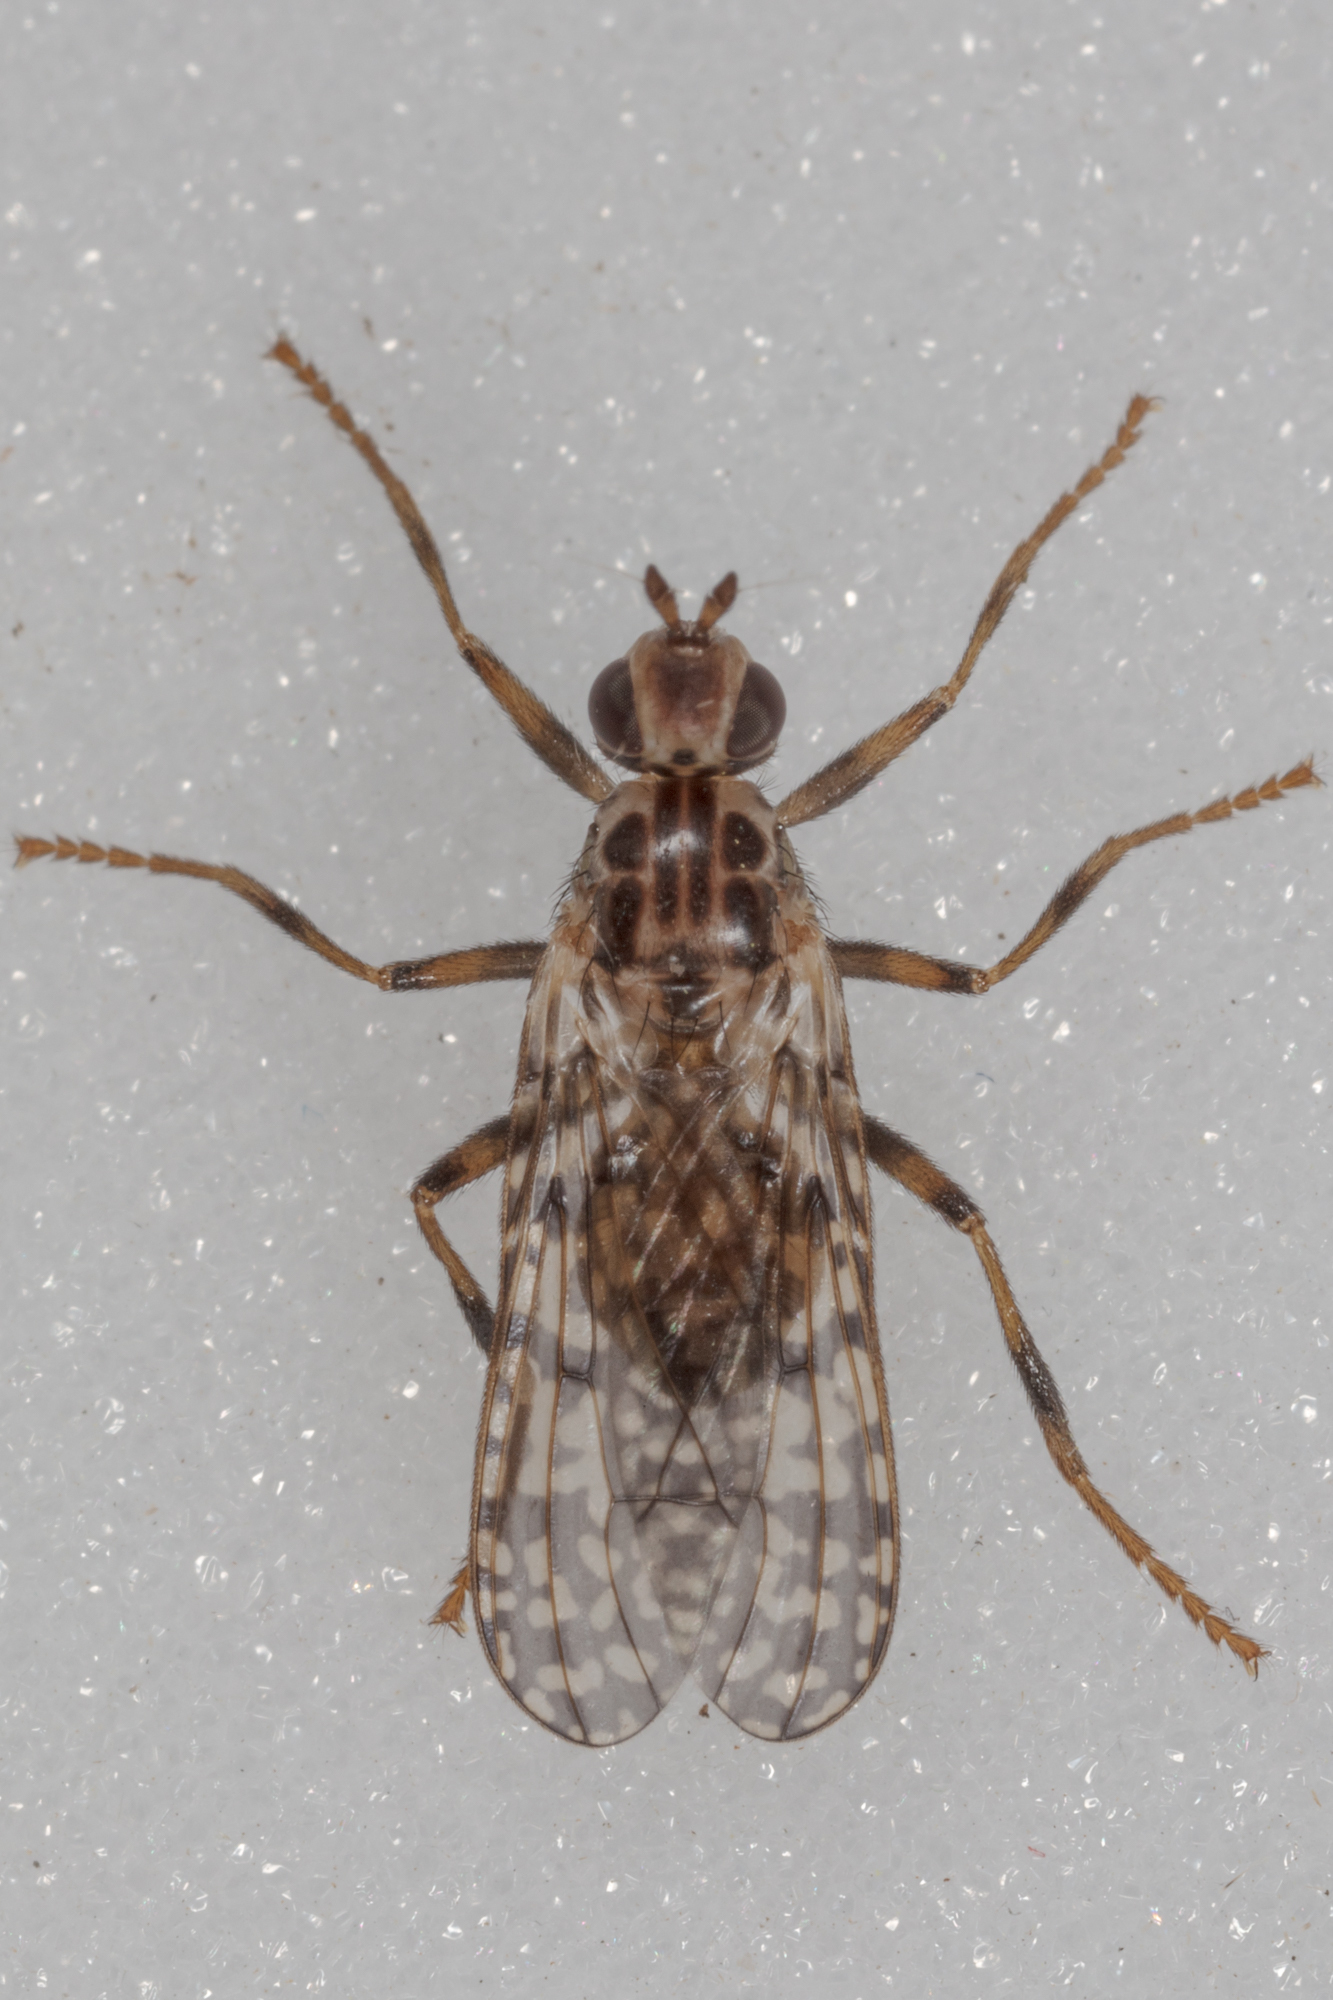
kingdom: Animalia
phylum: Arthropoda
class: Insecta
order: Diptera
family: Pyrgotidae
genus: Boreothrinax
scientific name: Boreothrinax
